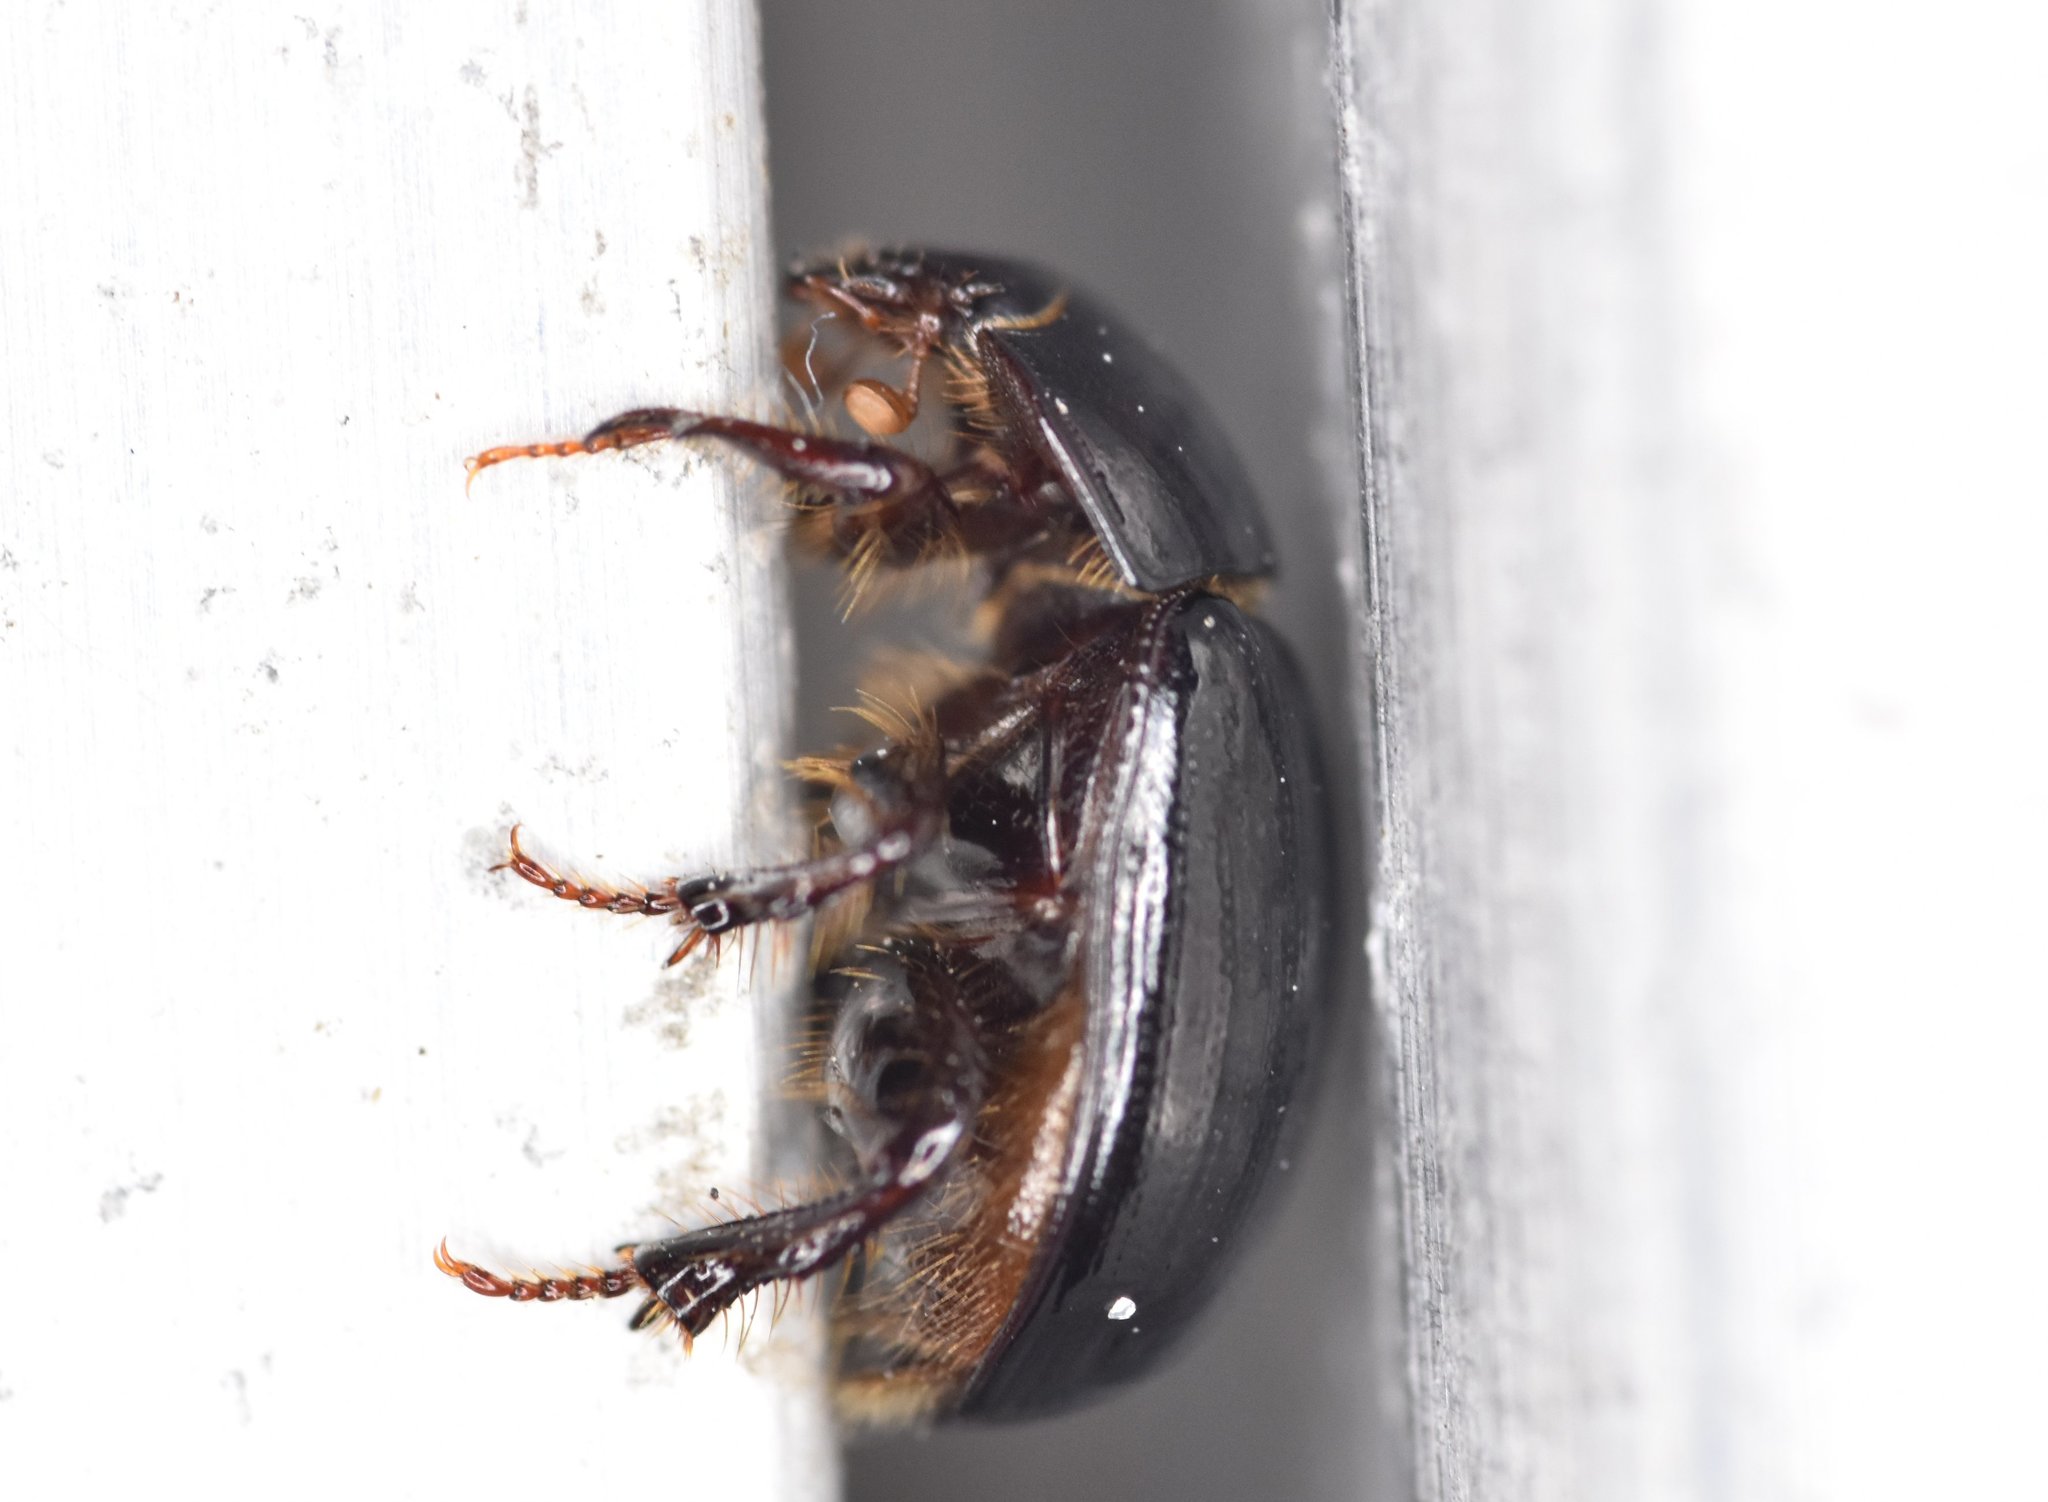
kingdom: Animalia
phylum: Arthropoda
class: Insecta
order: Coleoptera
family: Hybosoridae
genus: Hybosorus
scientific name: Hybosorus illigeri
